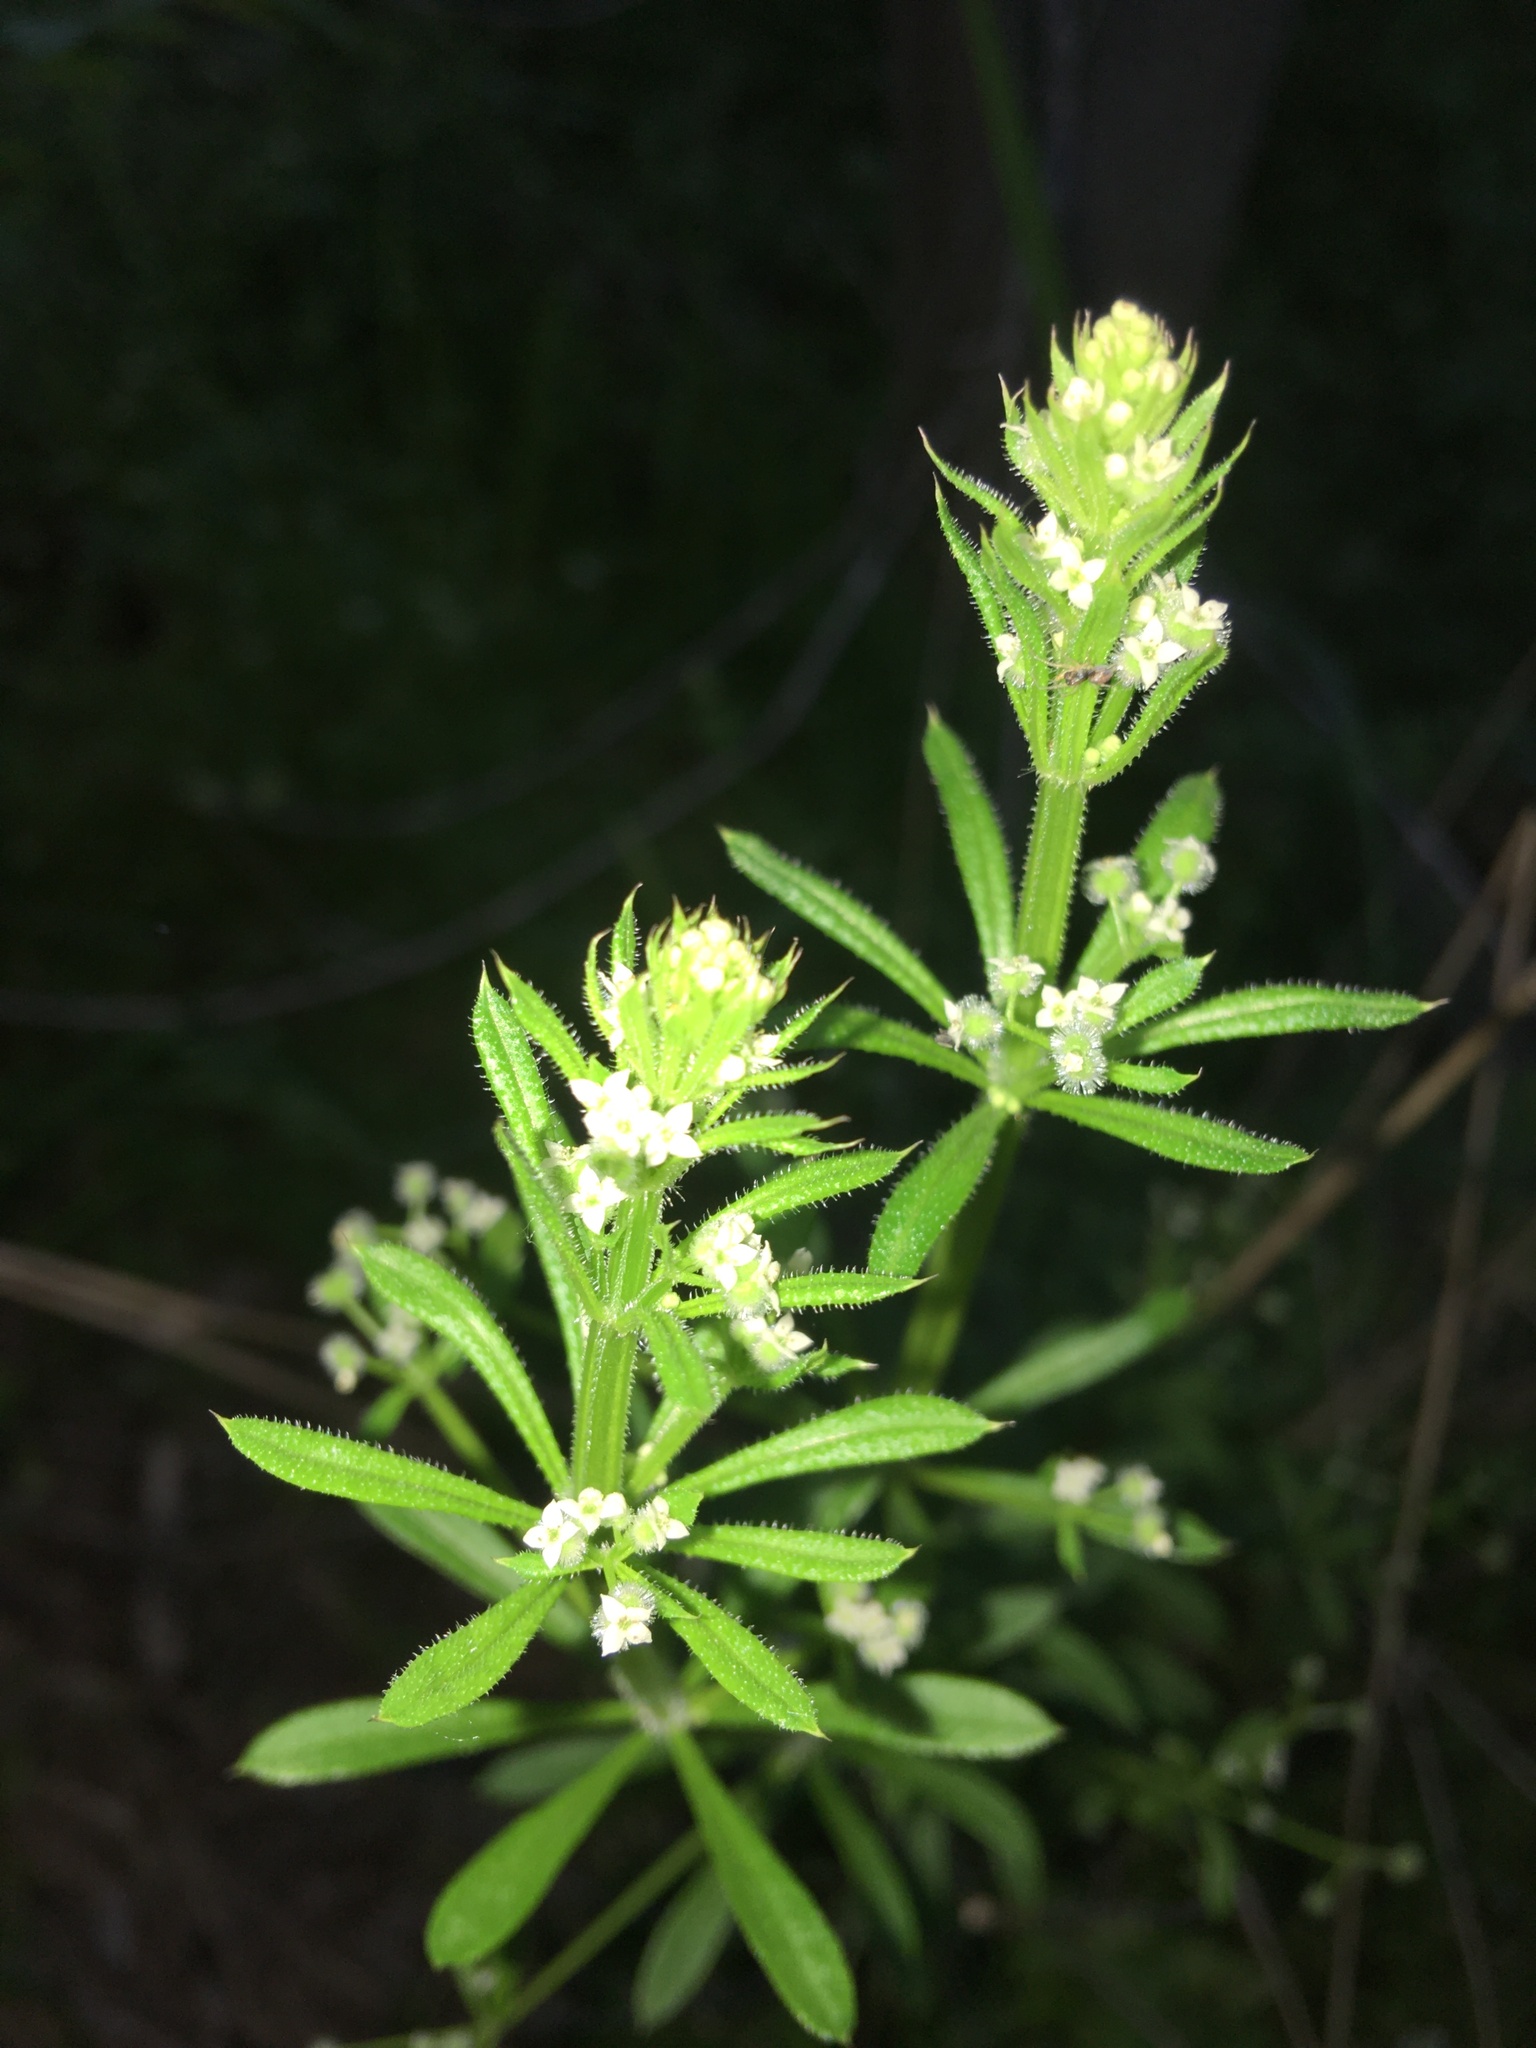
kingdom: Plantae
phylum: Tracheophyta
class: Magnoliopsida
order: Gentianales
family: Rubiaceae
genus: Galium
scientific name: Galium aparine
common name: Cleavers
